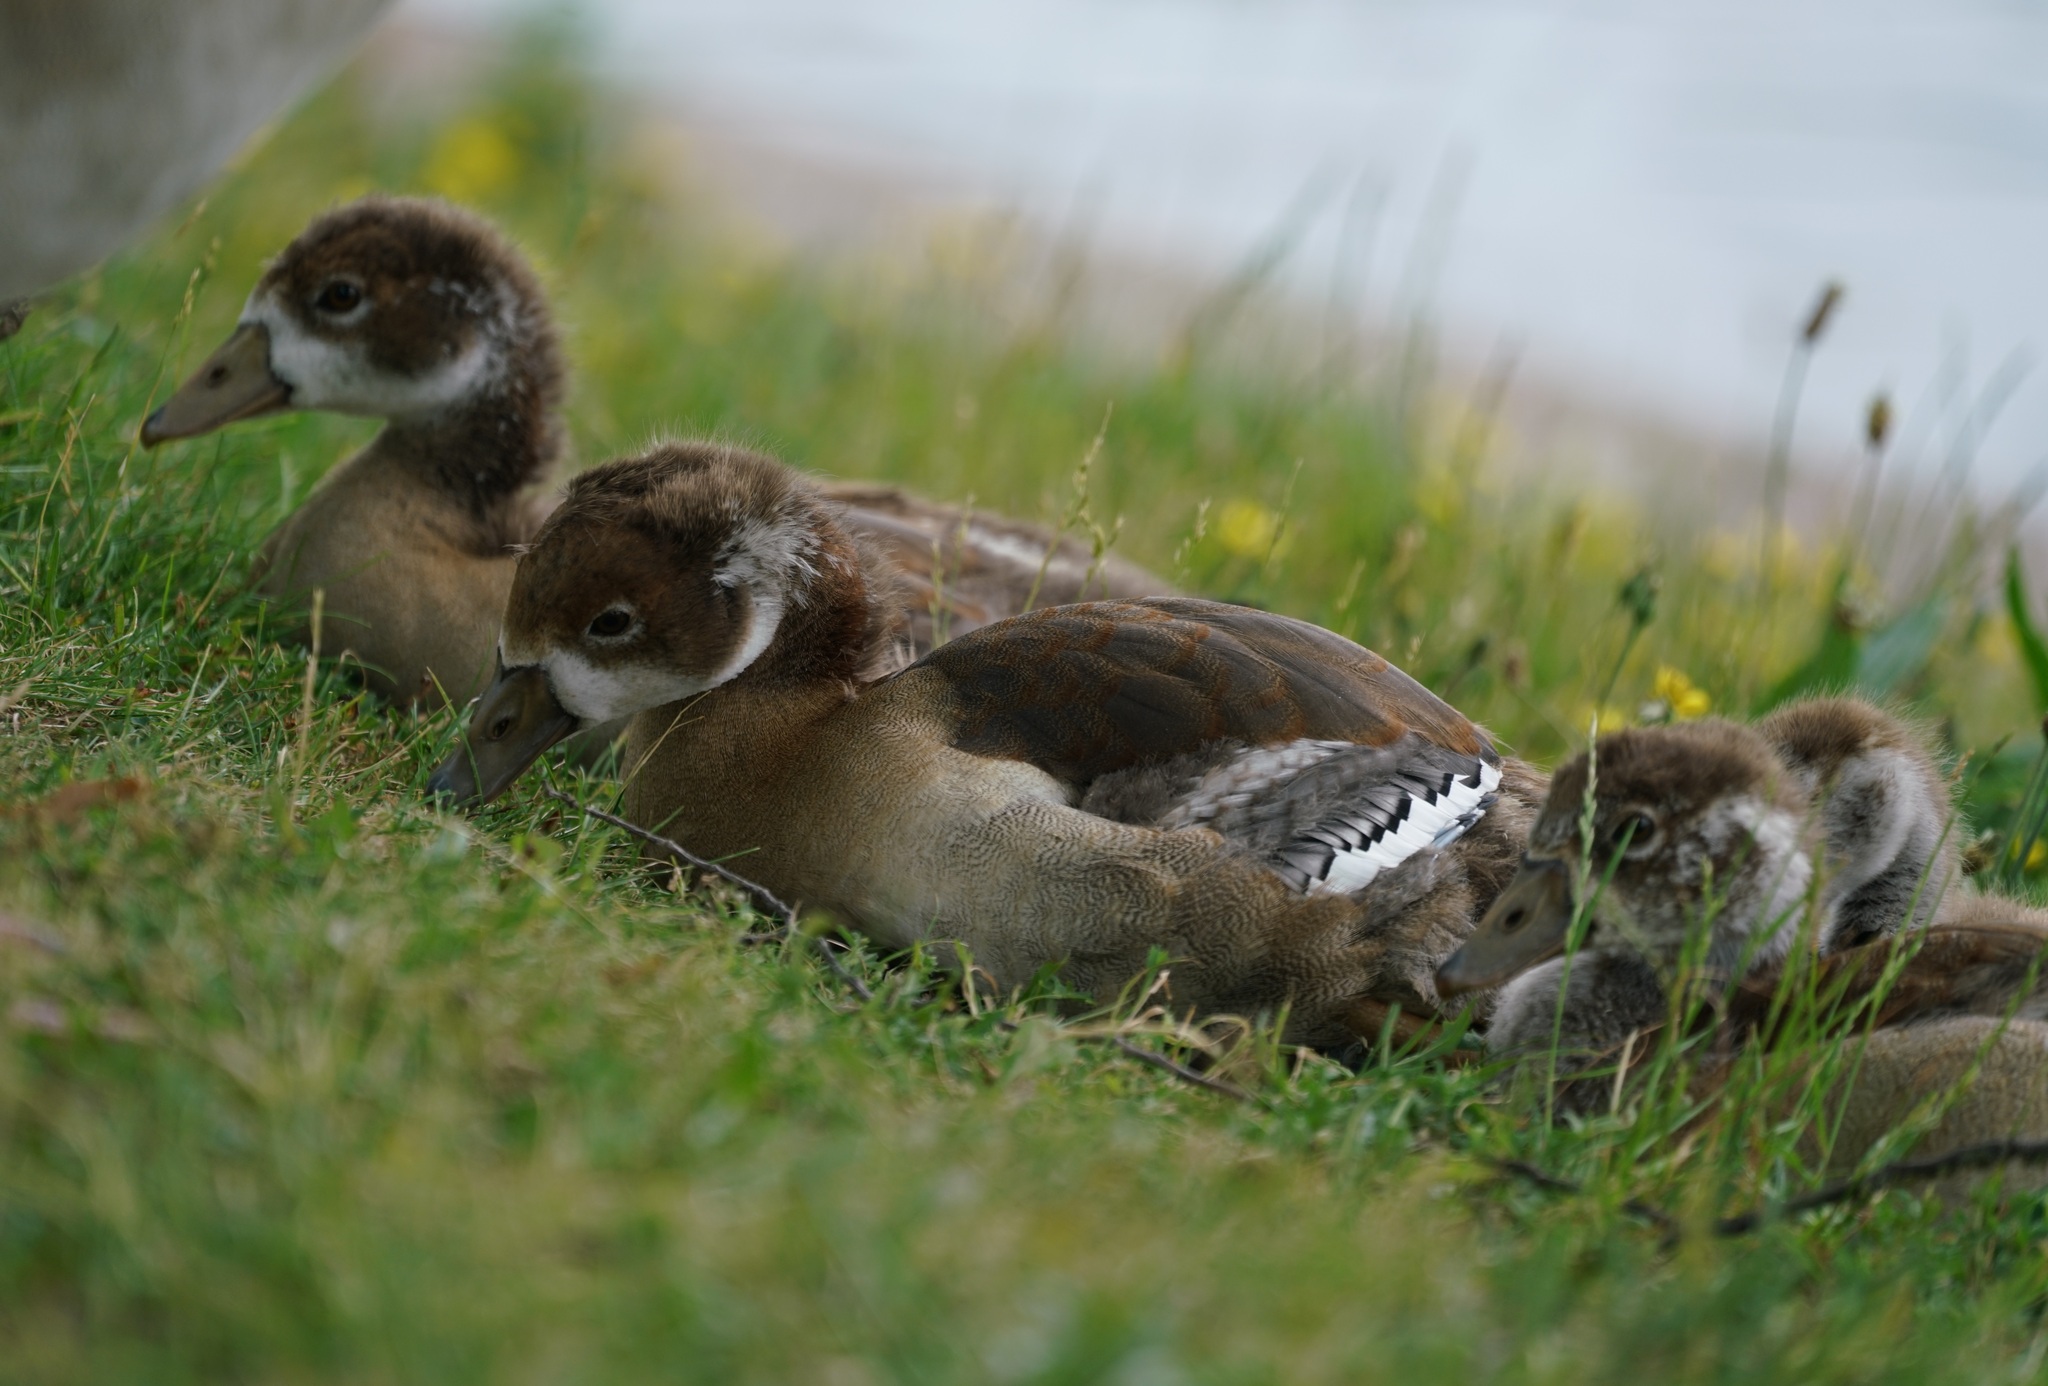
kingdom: Animalia
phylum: Chordata
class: Aves
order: Anseriformes
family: Anatidae
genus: Alopochen
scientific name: Alopochen aegyptiaca
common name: Egyptian goose
